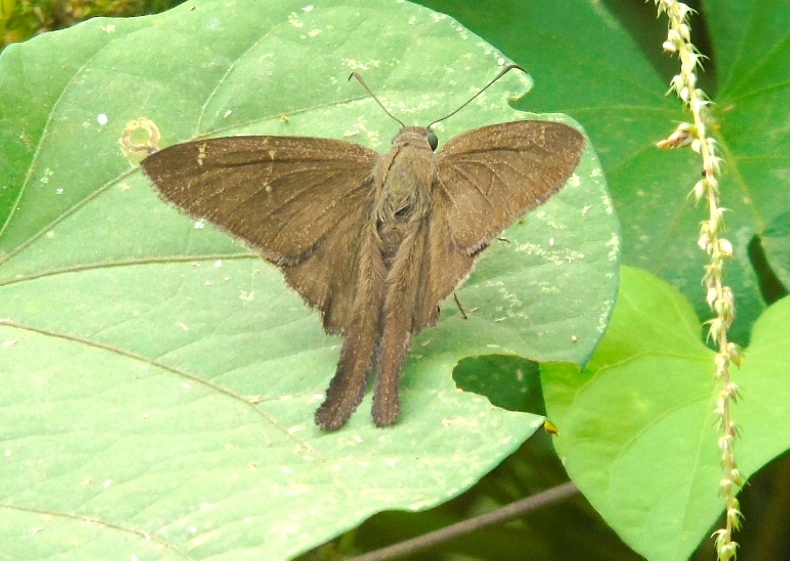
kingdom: Animalia
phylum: Arthropoda
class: Insecta
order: Lepidoptera
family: Hesperiidae
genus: Urbanus
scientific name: Urbanus procne
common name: Brown longtail
